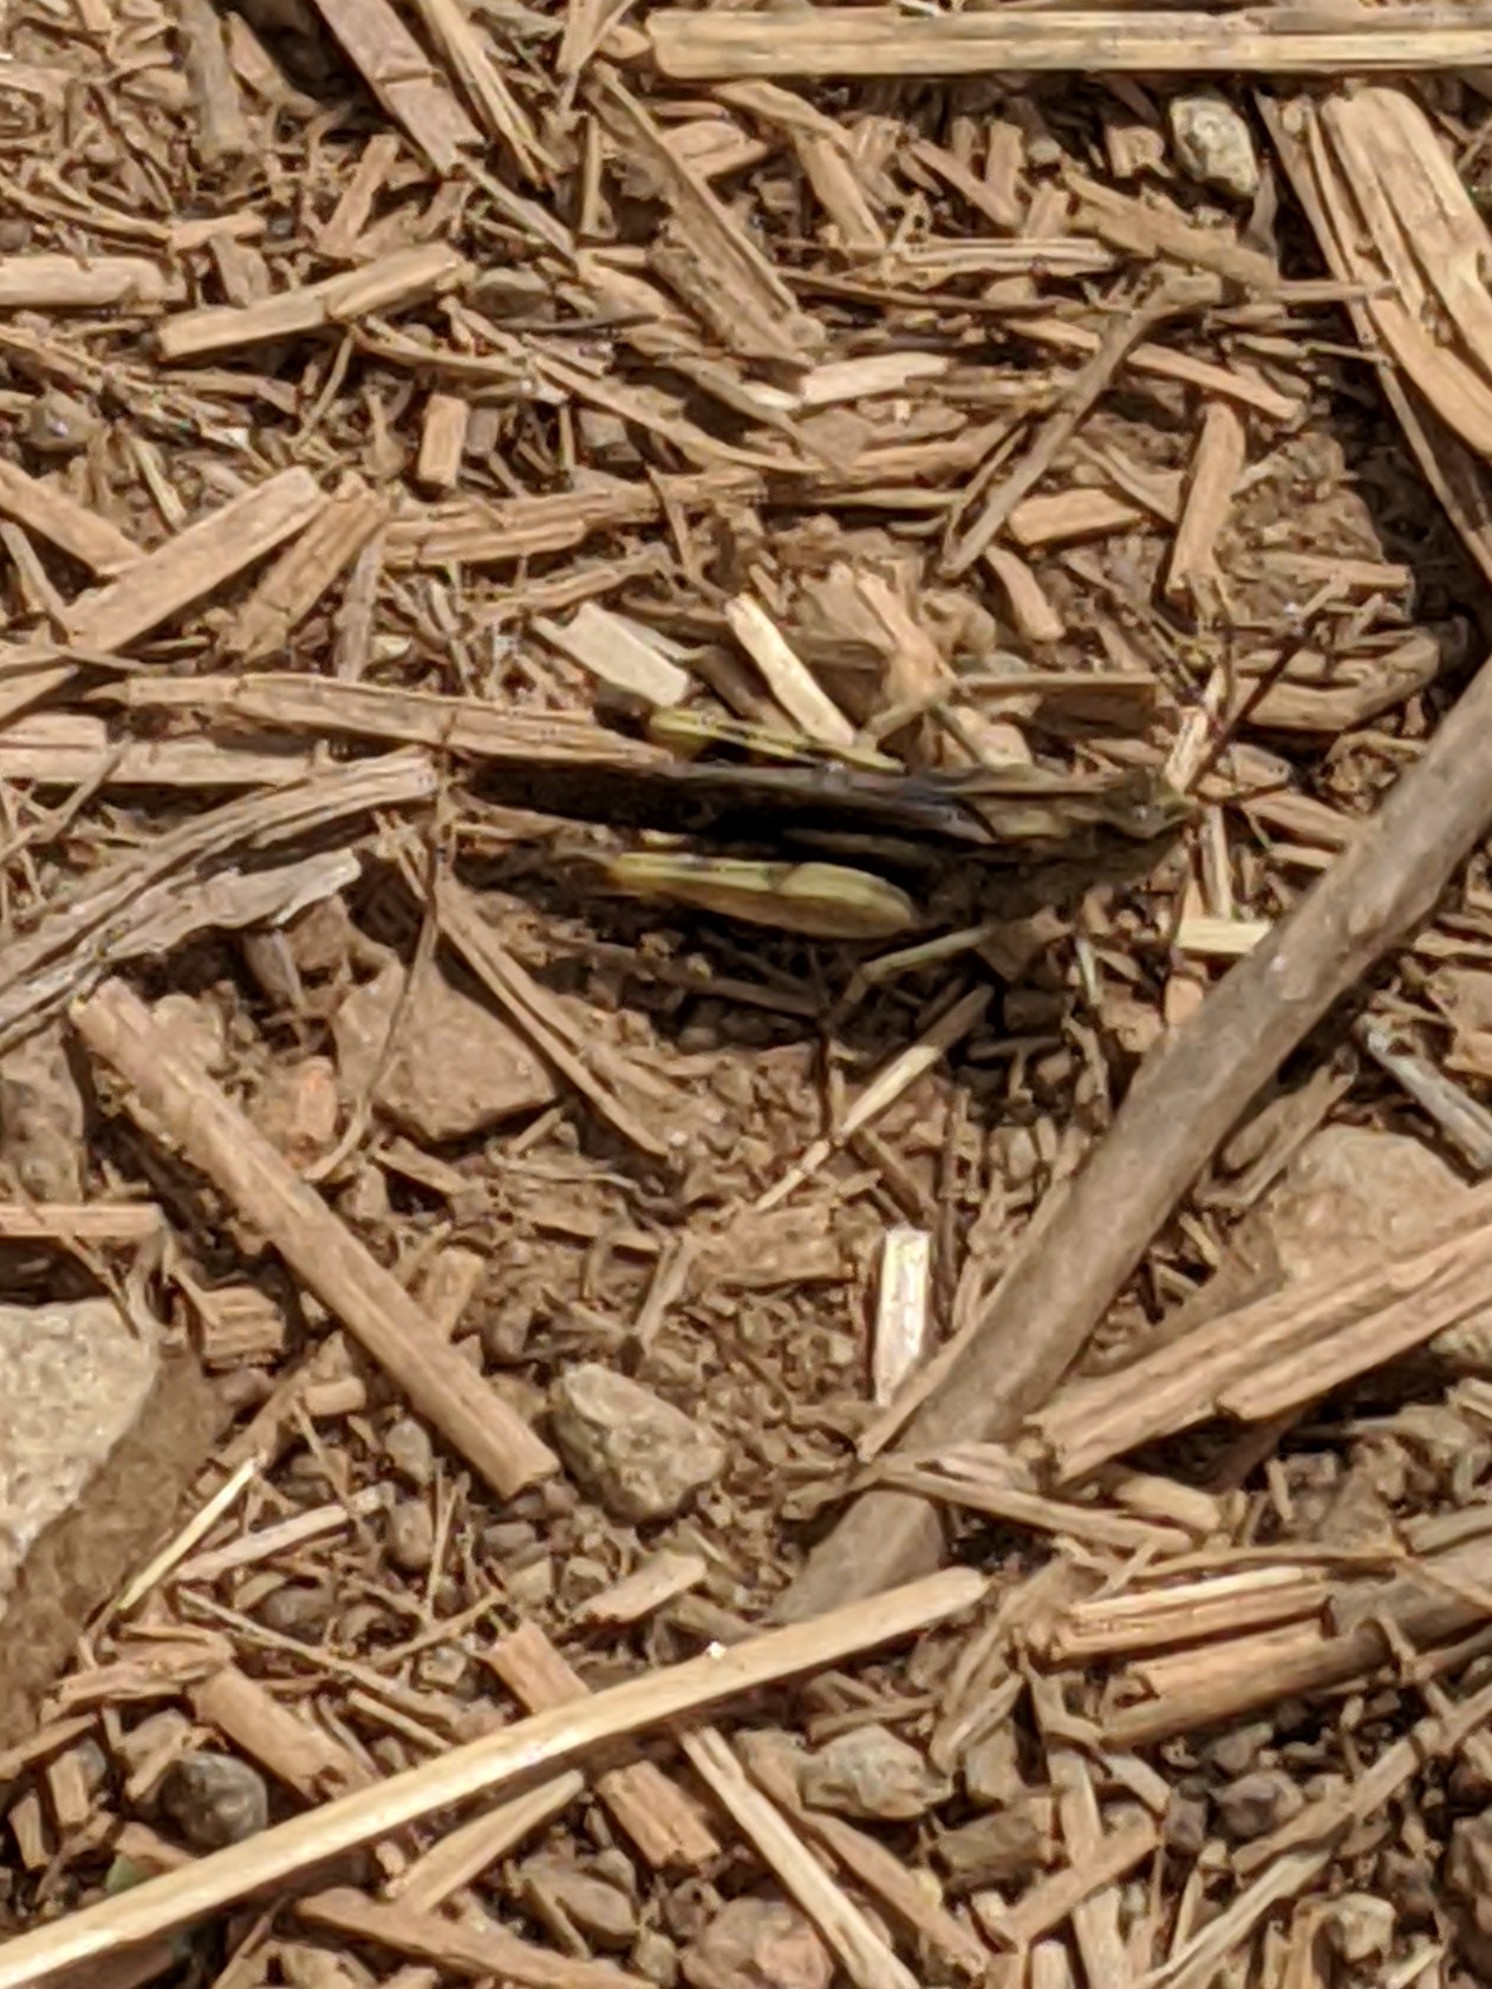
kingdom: Animalia
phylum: Arthropoda
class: Insecta
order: Orthoptera
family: Acrididae
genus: Chortophaga
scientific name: Chortophaga viridifasciata
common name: Green-striped grasshopper
